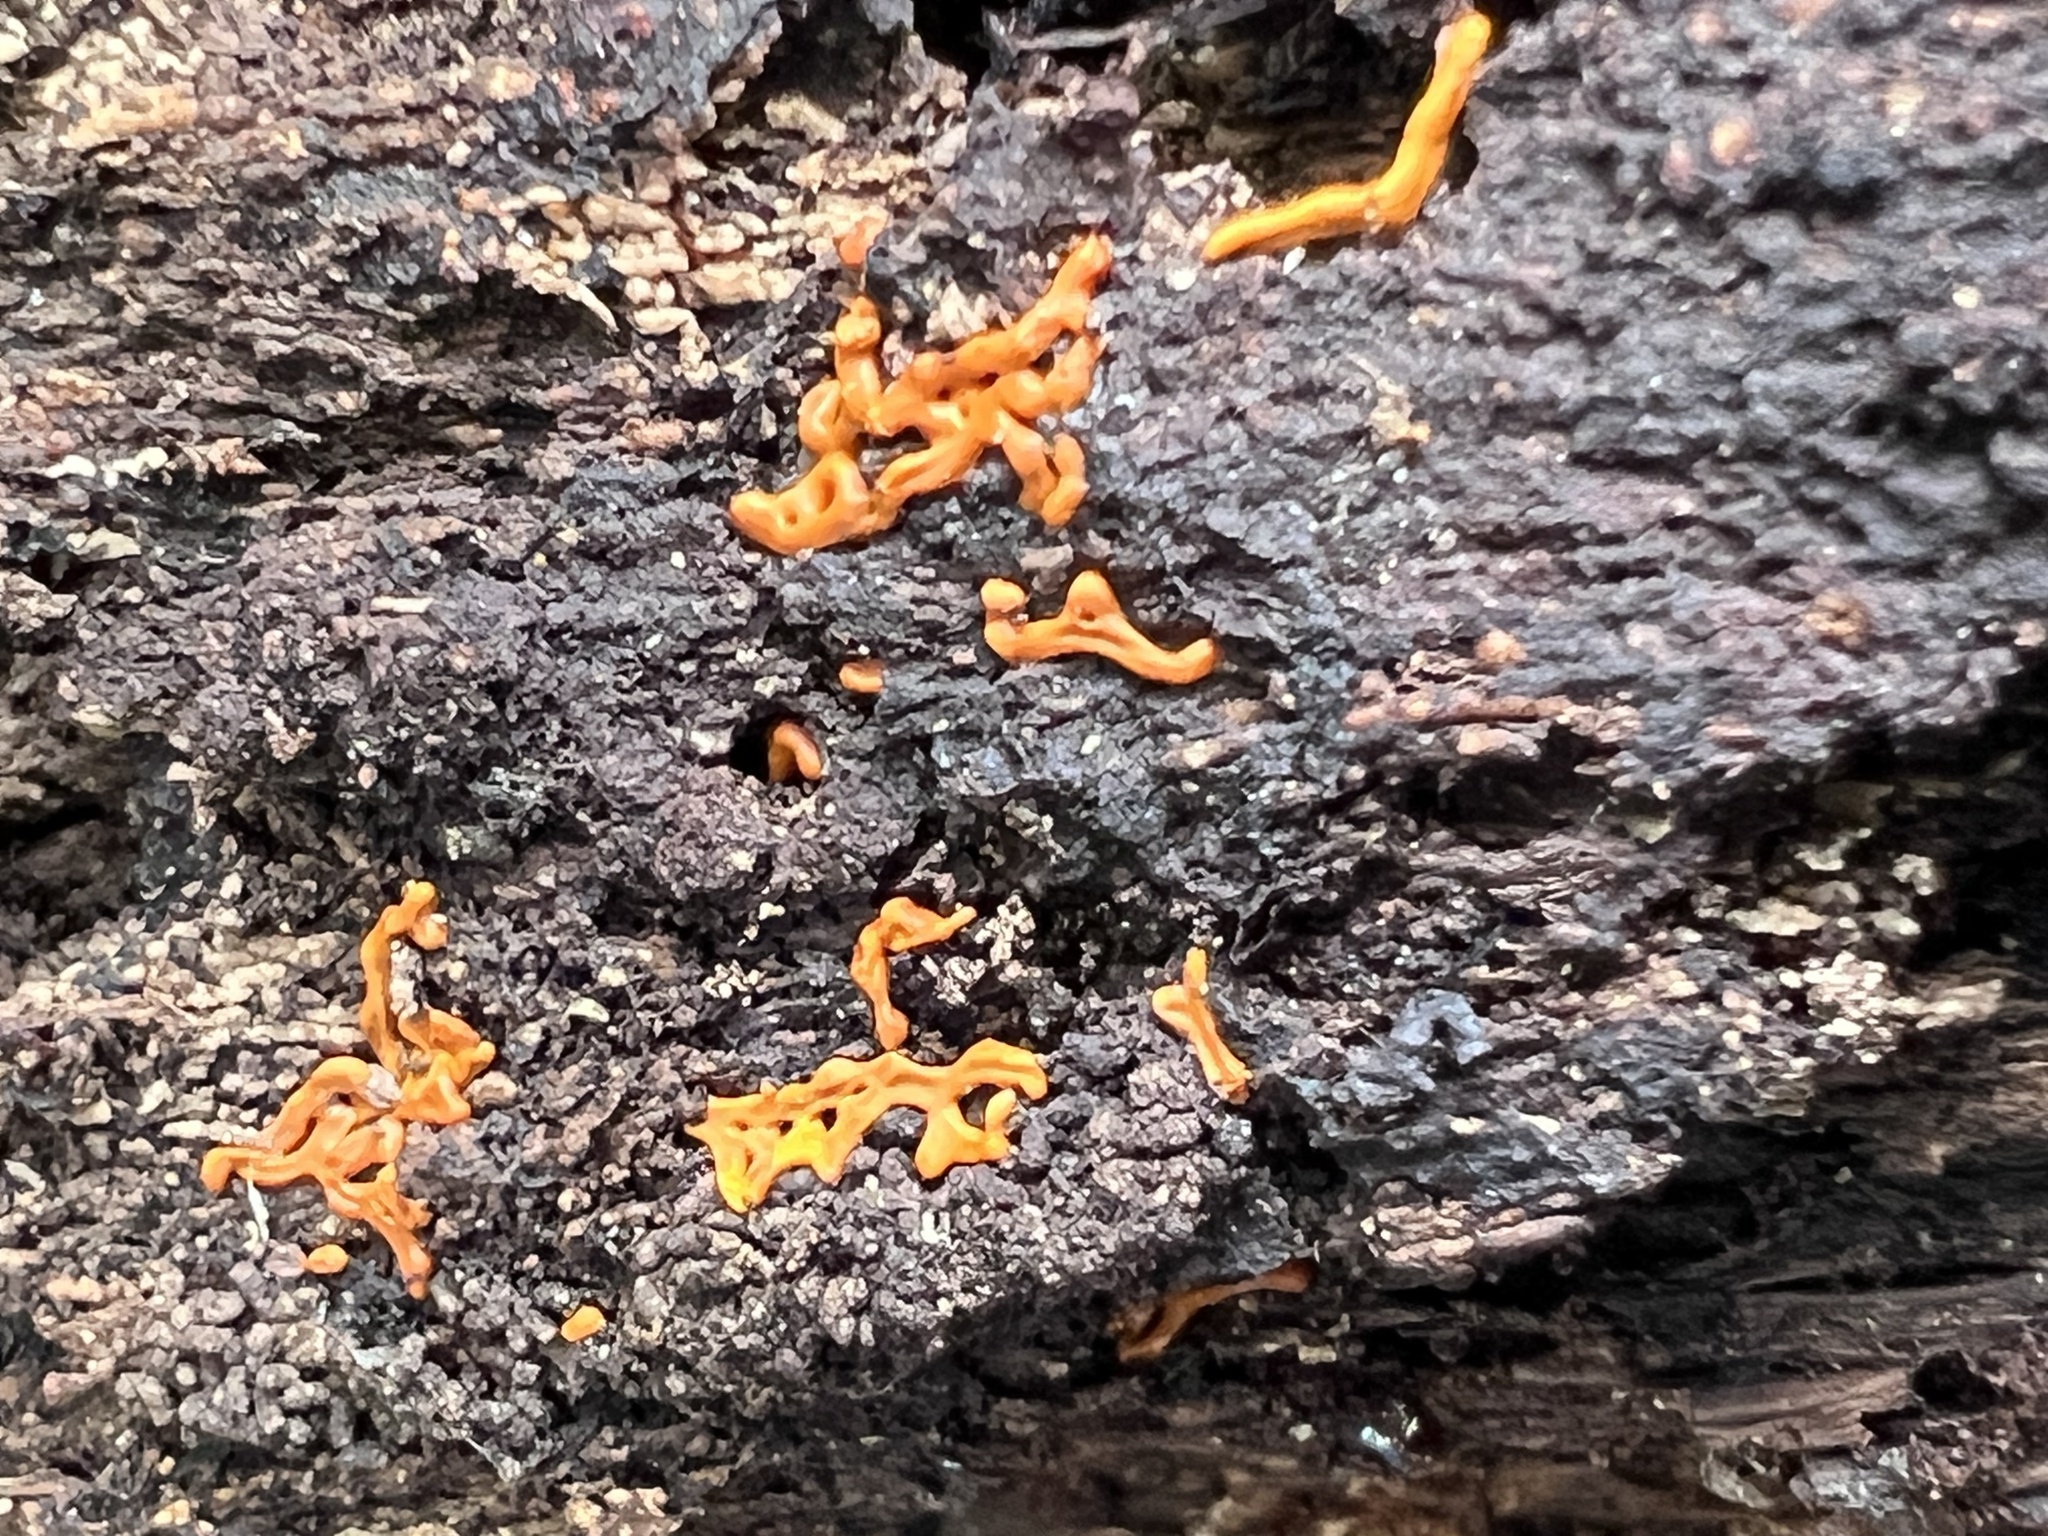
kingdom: Protozoa
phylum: Mycetozoa
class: Myxomycetes
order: Trichiales
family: Arcyriaceae
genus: Hemitrichia
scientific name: Hemitrichia serpula
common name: Pretzel slime mold
